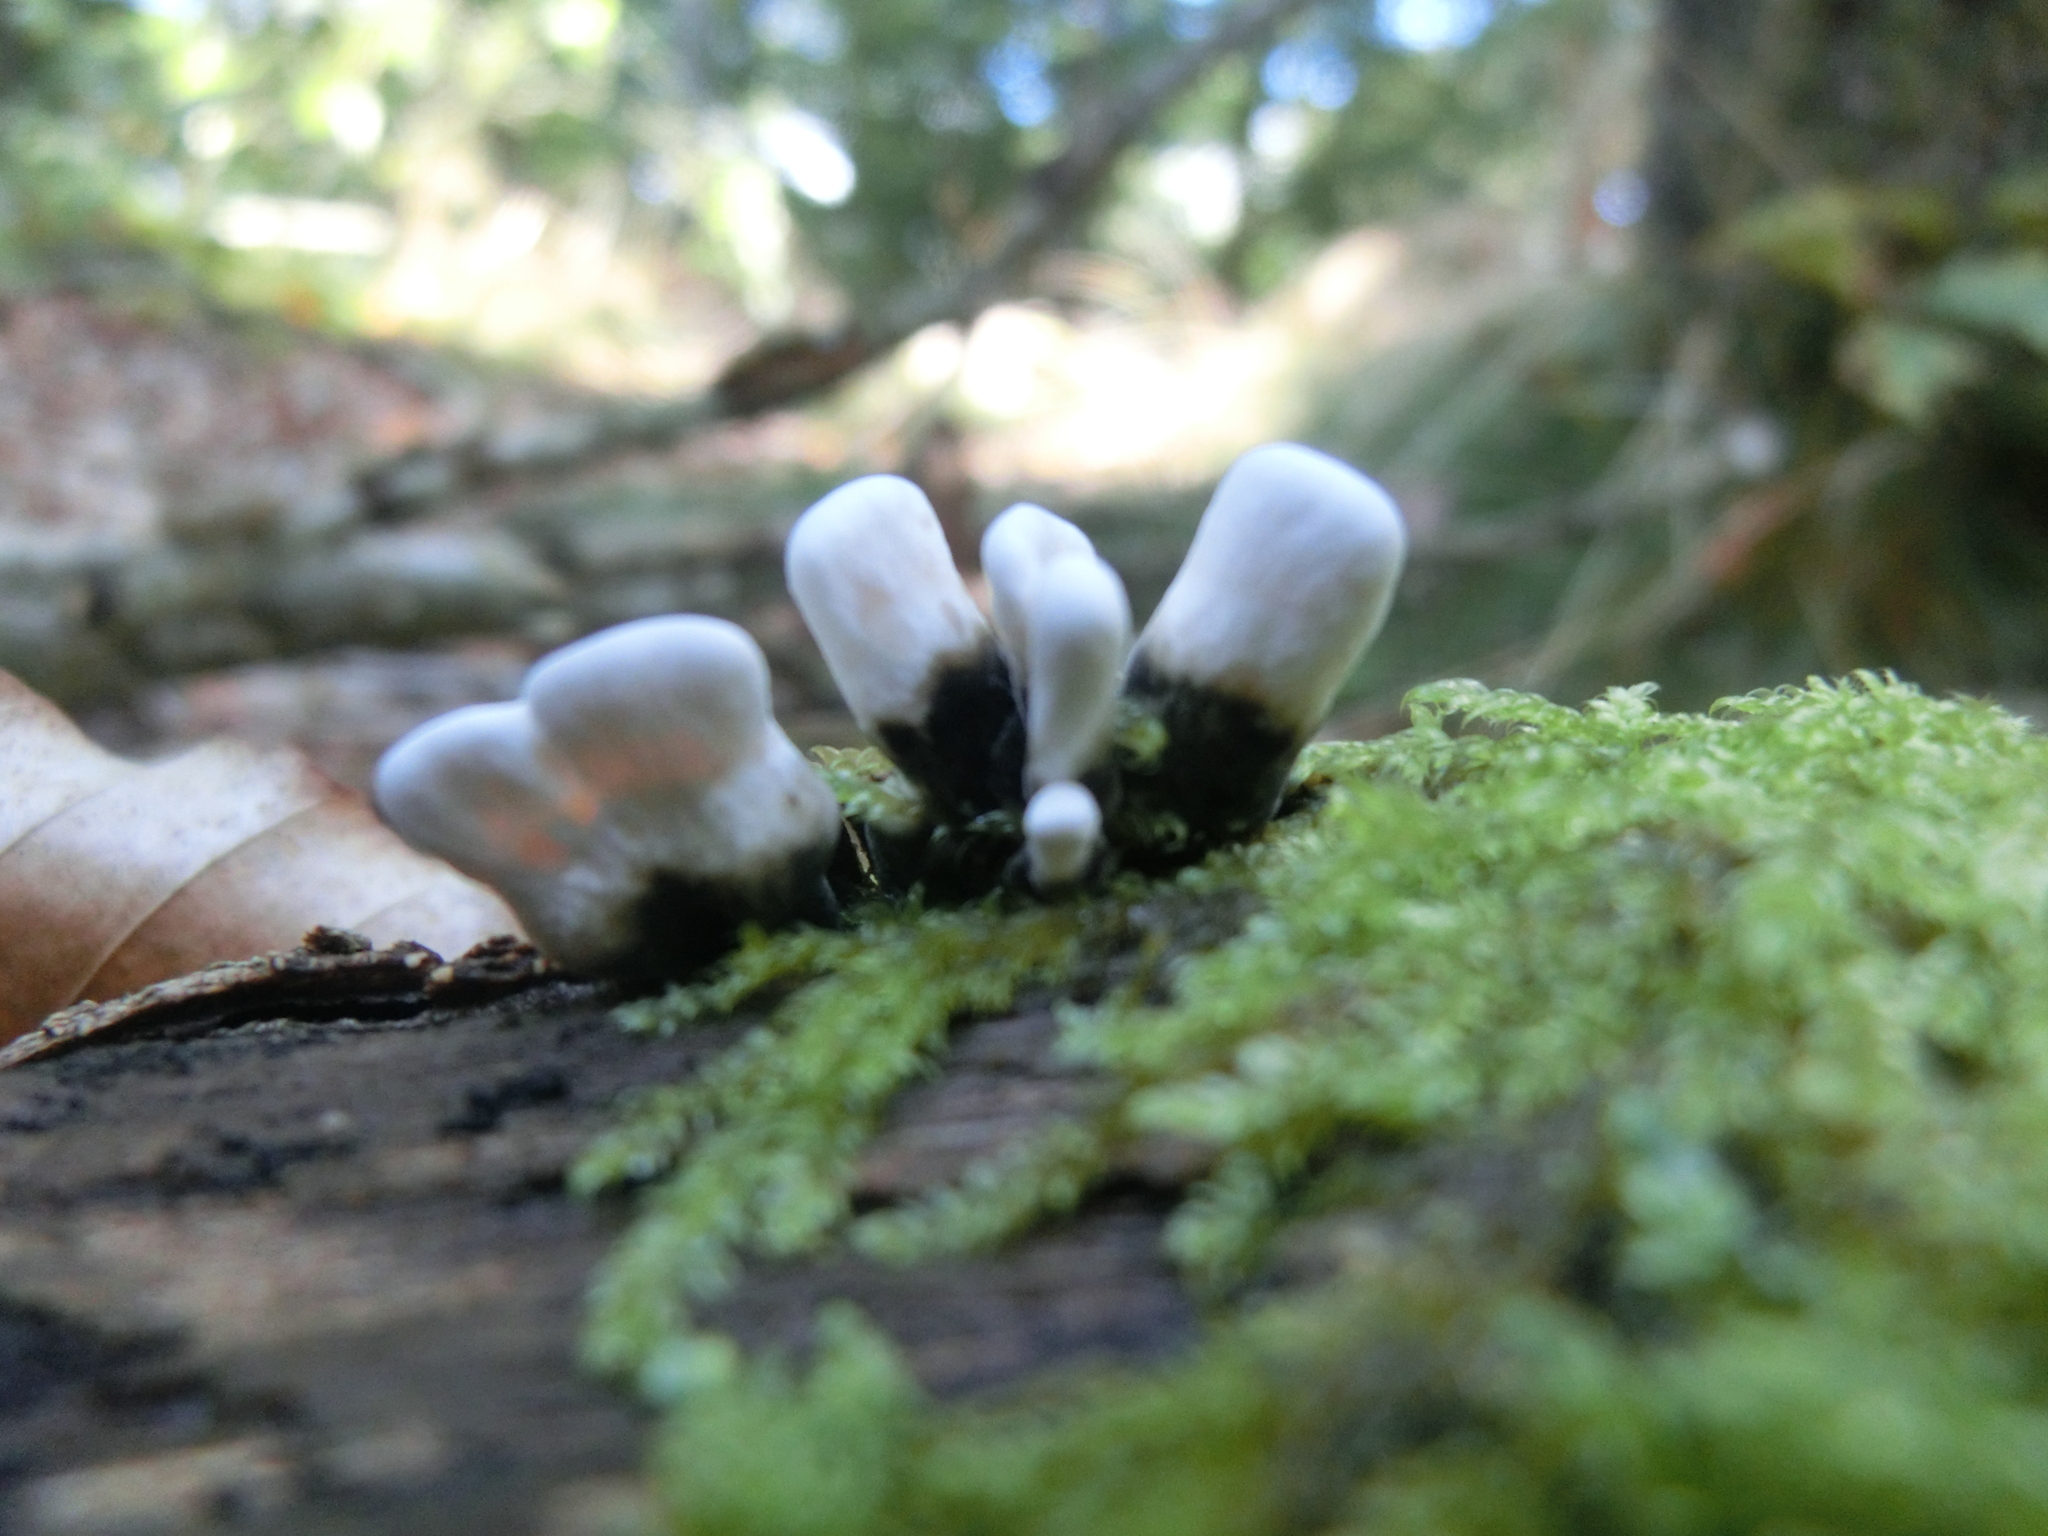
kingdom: Fungi
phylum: Ascomycota
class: Sordariomycetes
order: Xylariales
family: Xylariaceae
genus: Xylaria
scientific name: Xylaria hypoxylon
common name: Candle-snuff fungus
